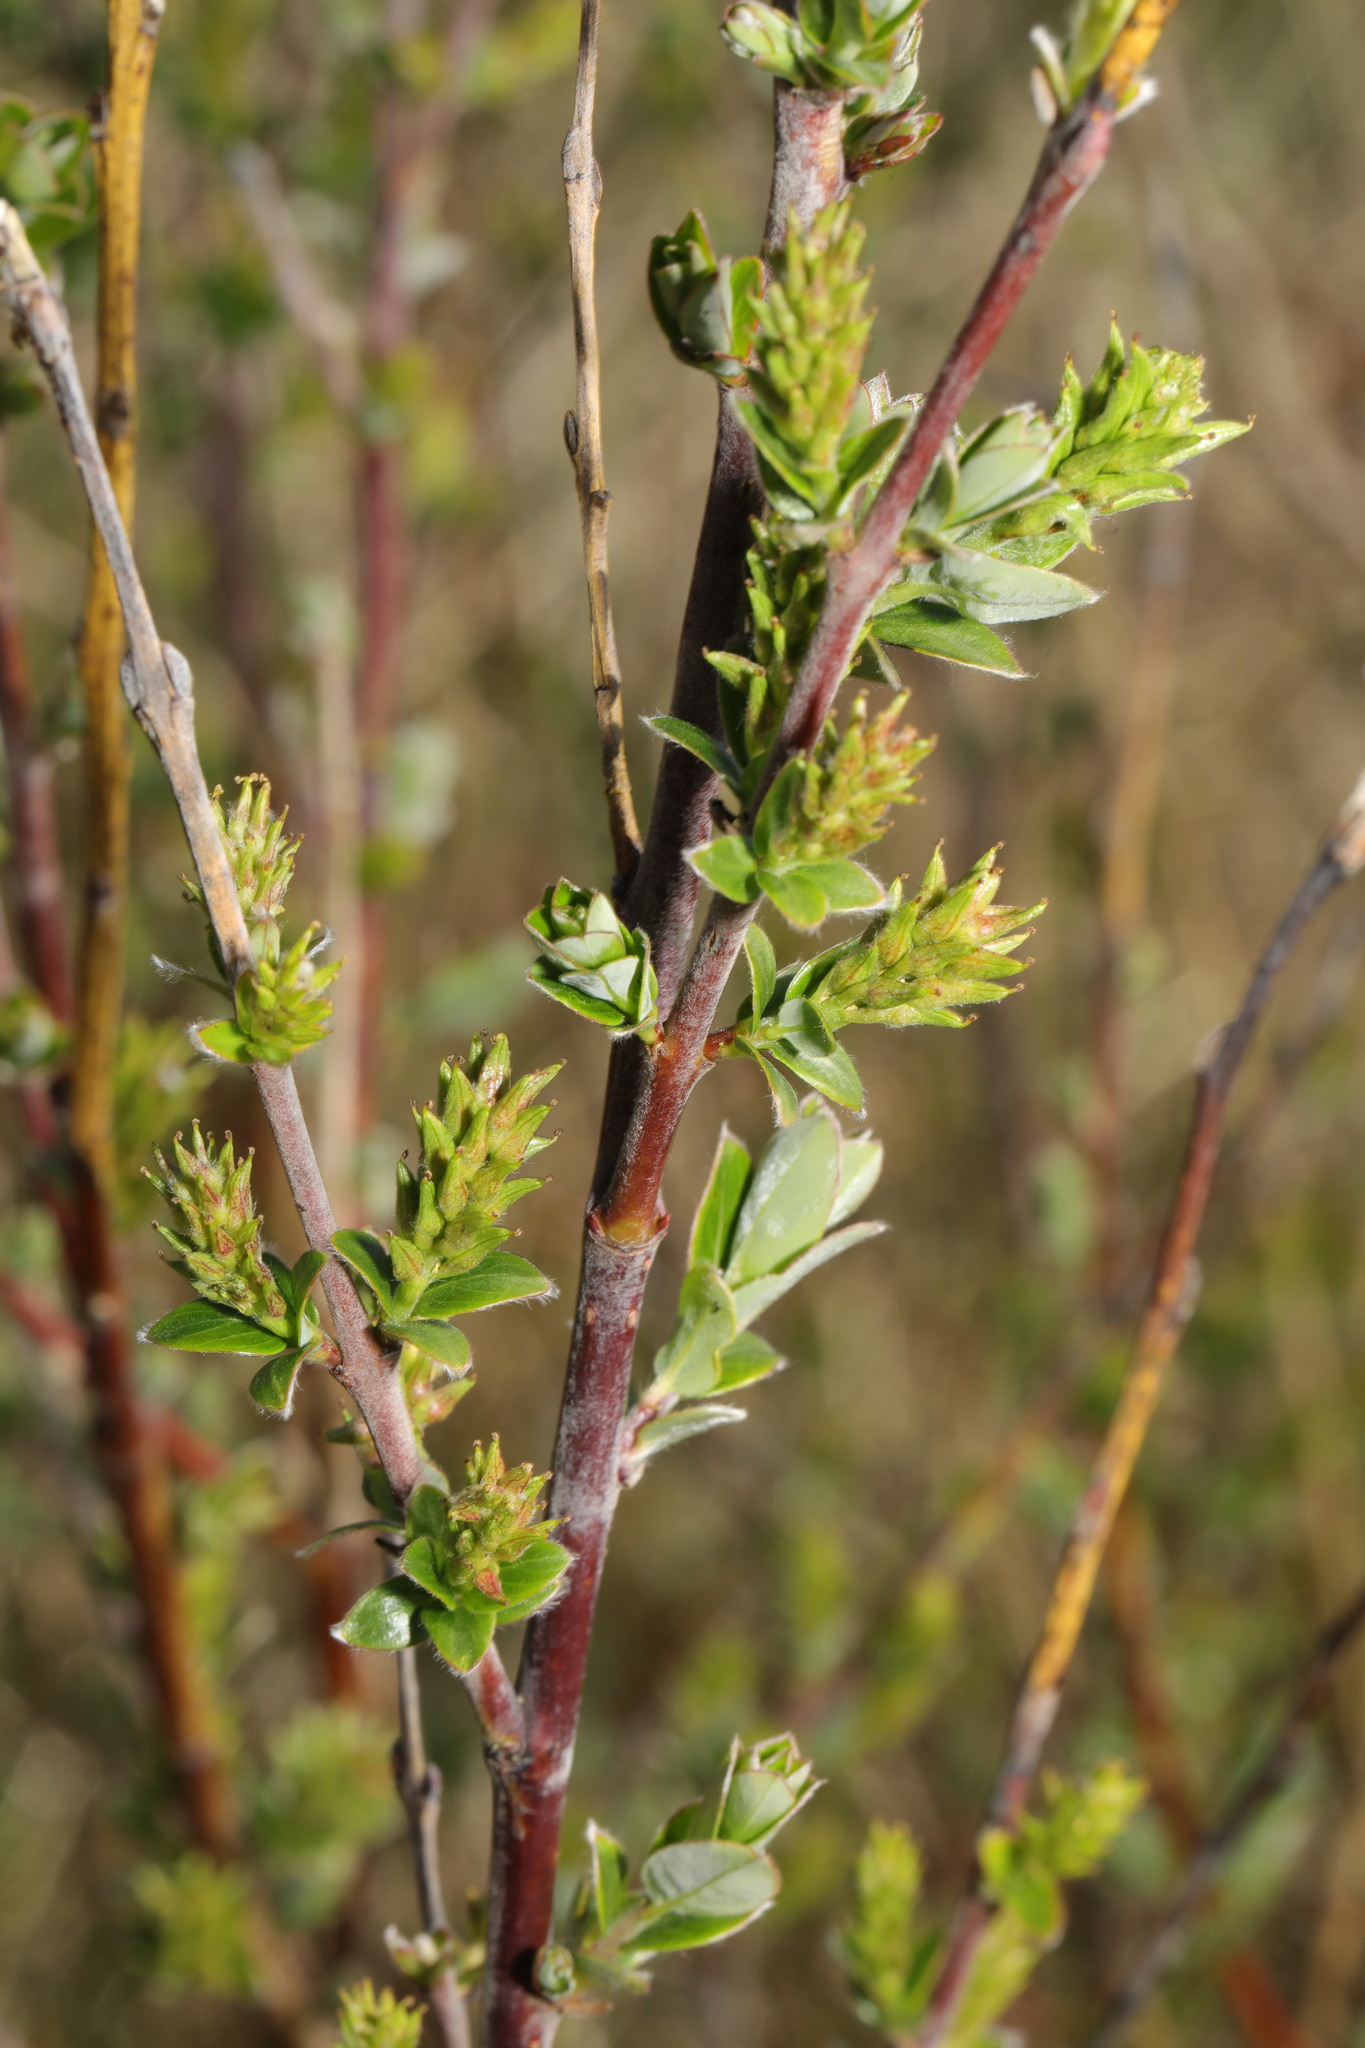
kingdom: Plantae
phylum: Tracheophyta
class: Magnoliopsida
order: Malpighiales
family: Salicaceae
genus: Salix
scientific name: Salix repens
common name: Creeping willow
